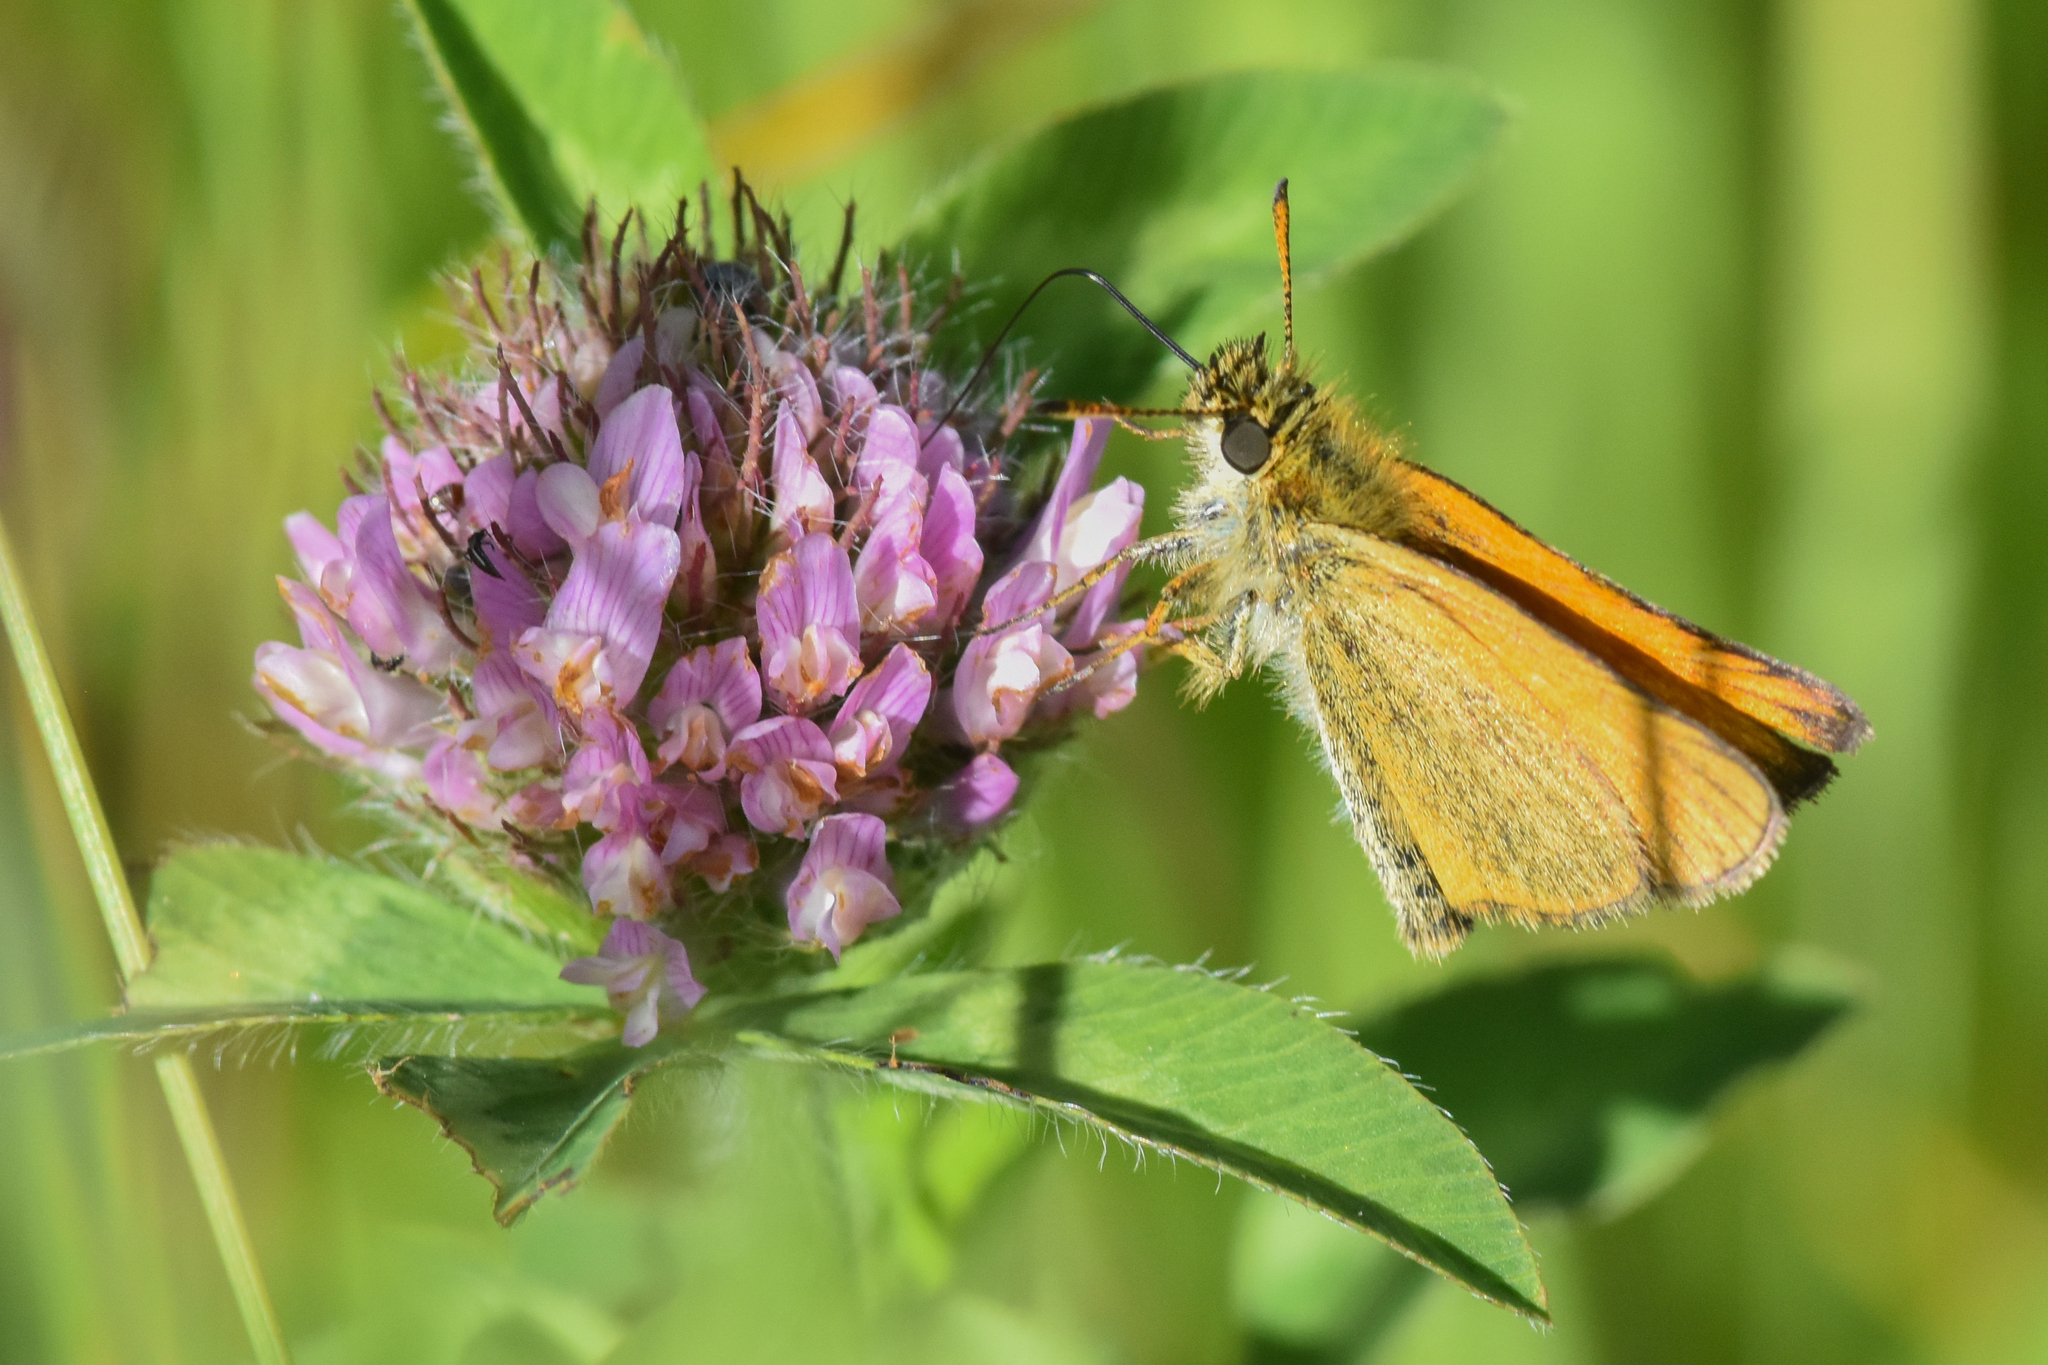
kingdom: Animalia
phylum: Arthropoda
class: Insecta
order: Lepidoptera
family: Hesperiidae
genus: Thymelicus
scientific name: Thymelicus lineola
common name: Essex skipper
